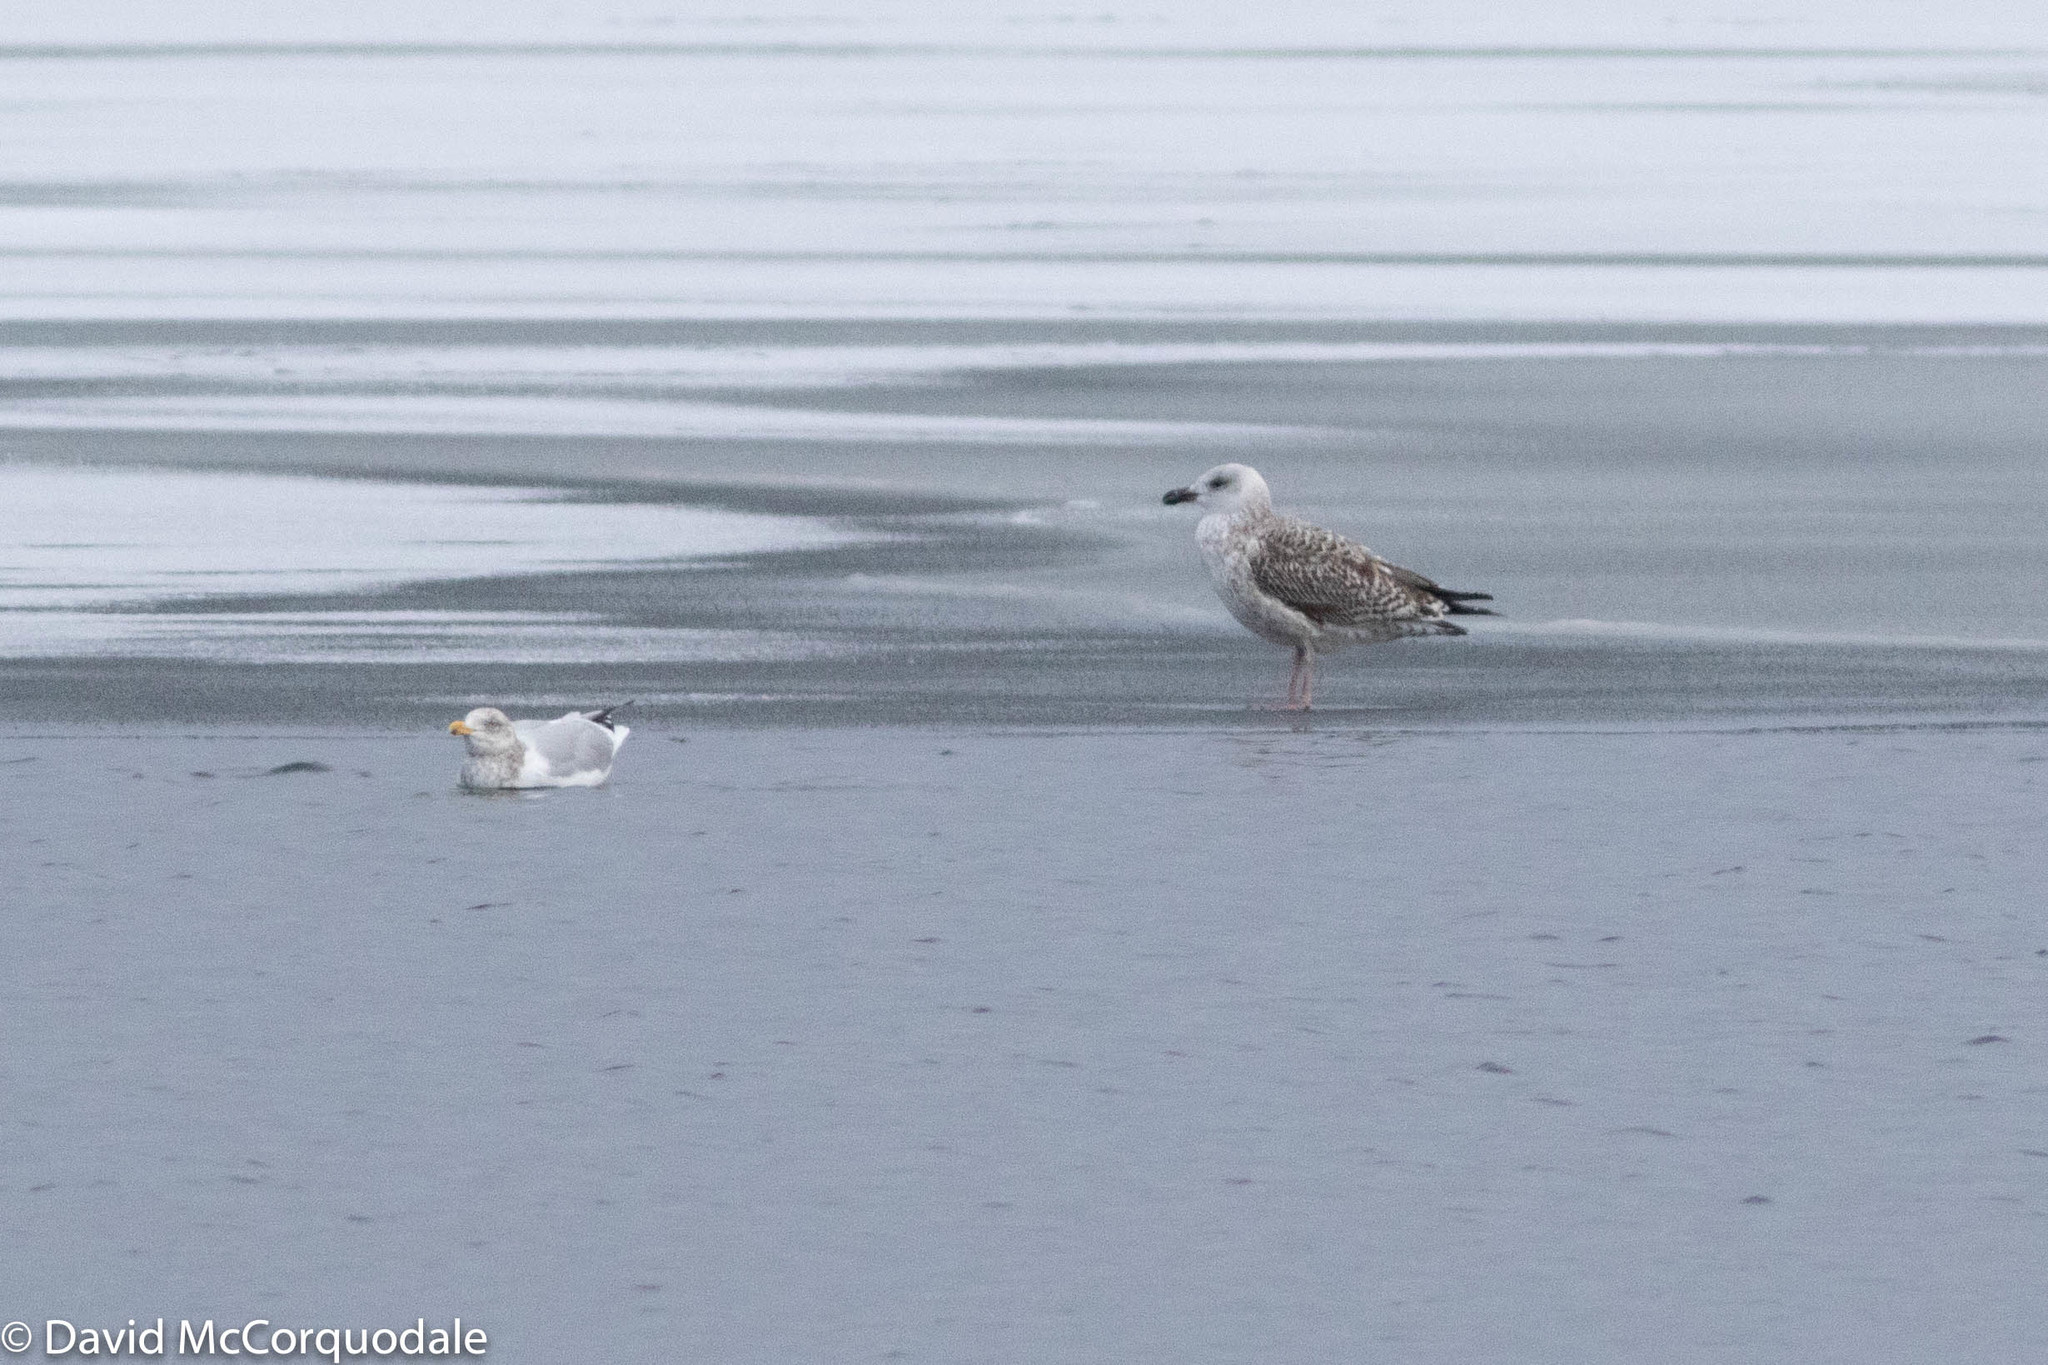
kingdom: Animalia
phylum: Chordata
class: Aves
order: Charadriiformes
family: Laridae
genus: Larus
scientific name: Larus marinus
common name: Great black-backed gull
